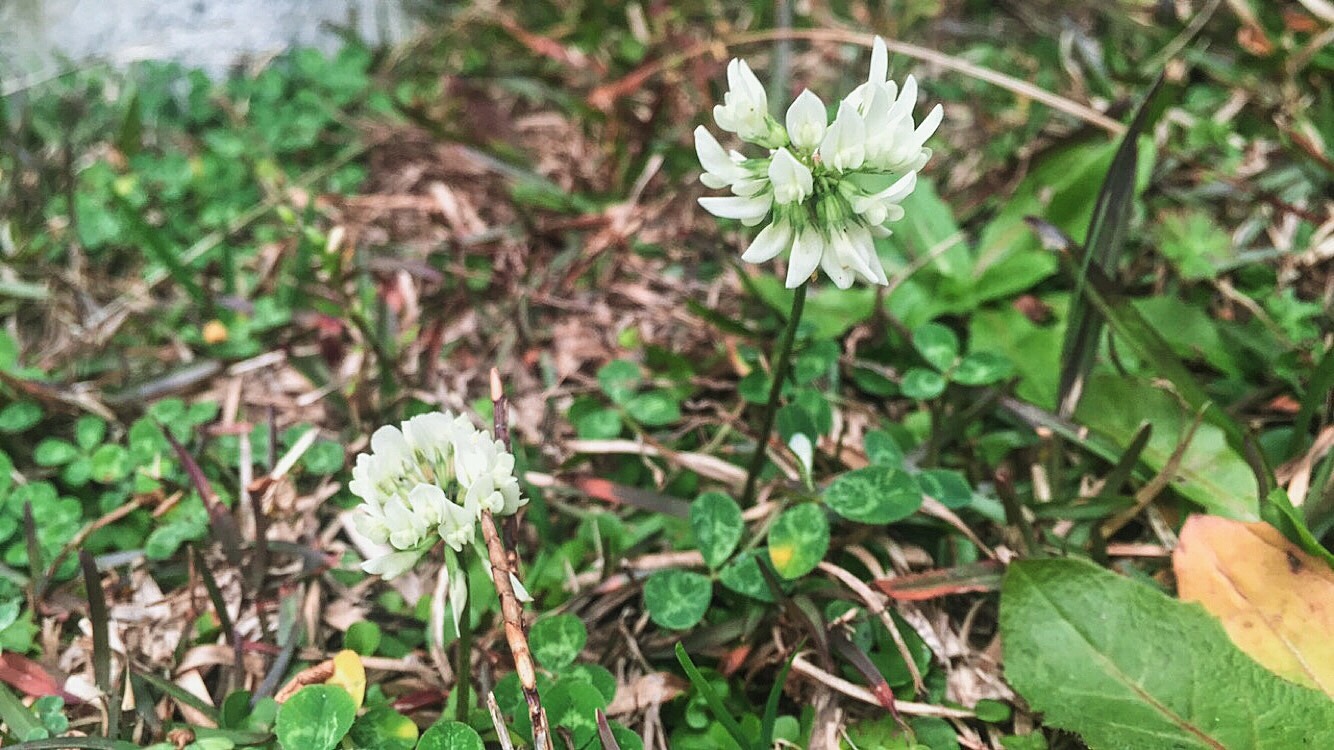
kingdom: Plantae
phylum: Tracheophyta
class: Magnoliopsida
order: Fabales
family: Fabaceae
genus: Trifolium
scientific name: Trifolium repens
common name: White clover
